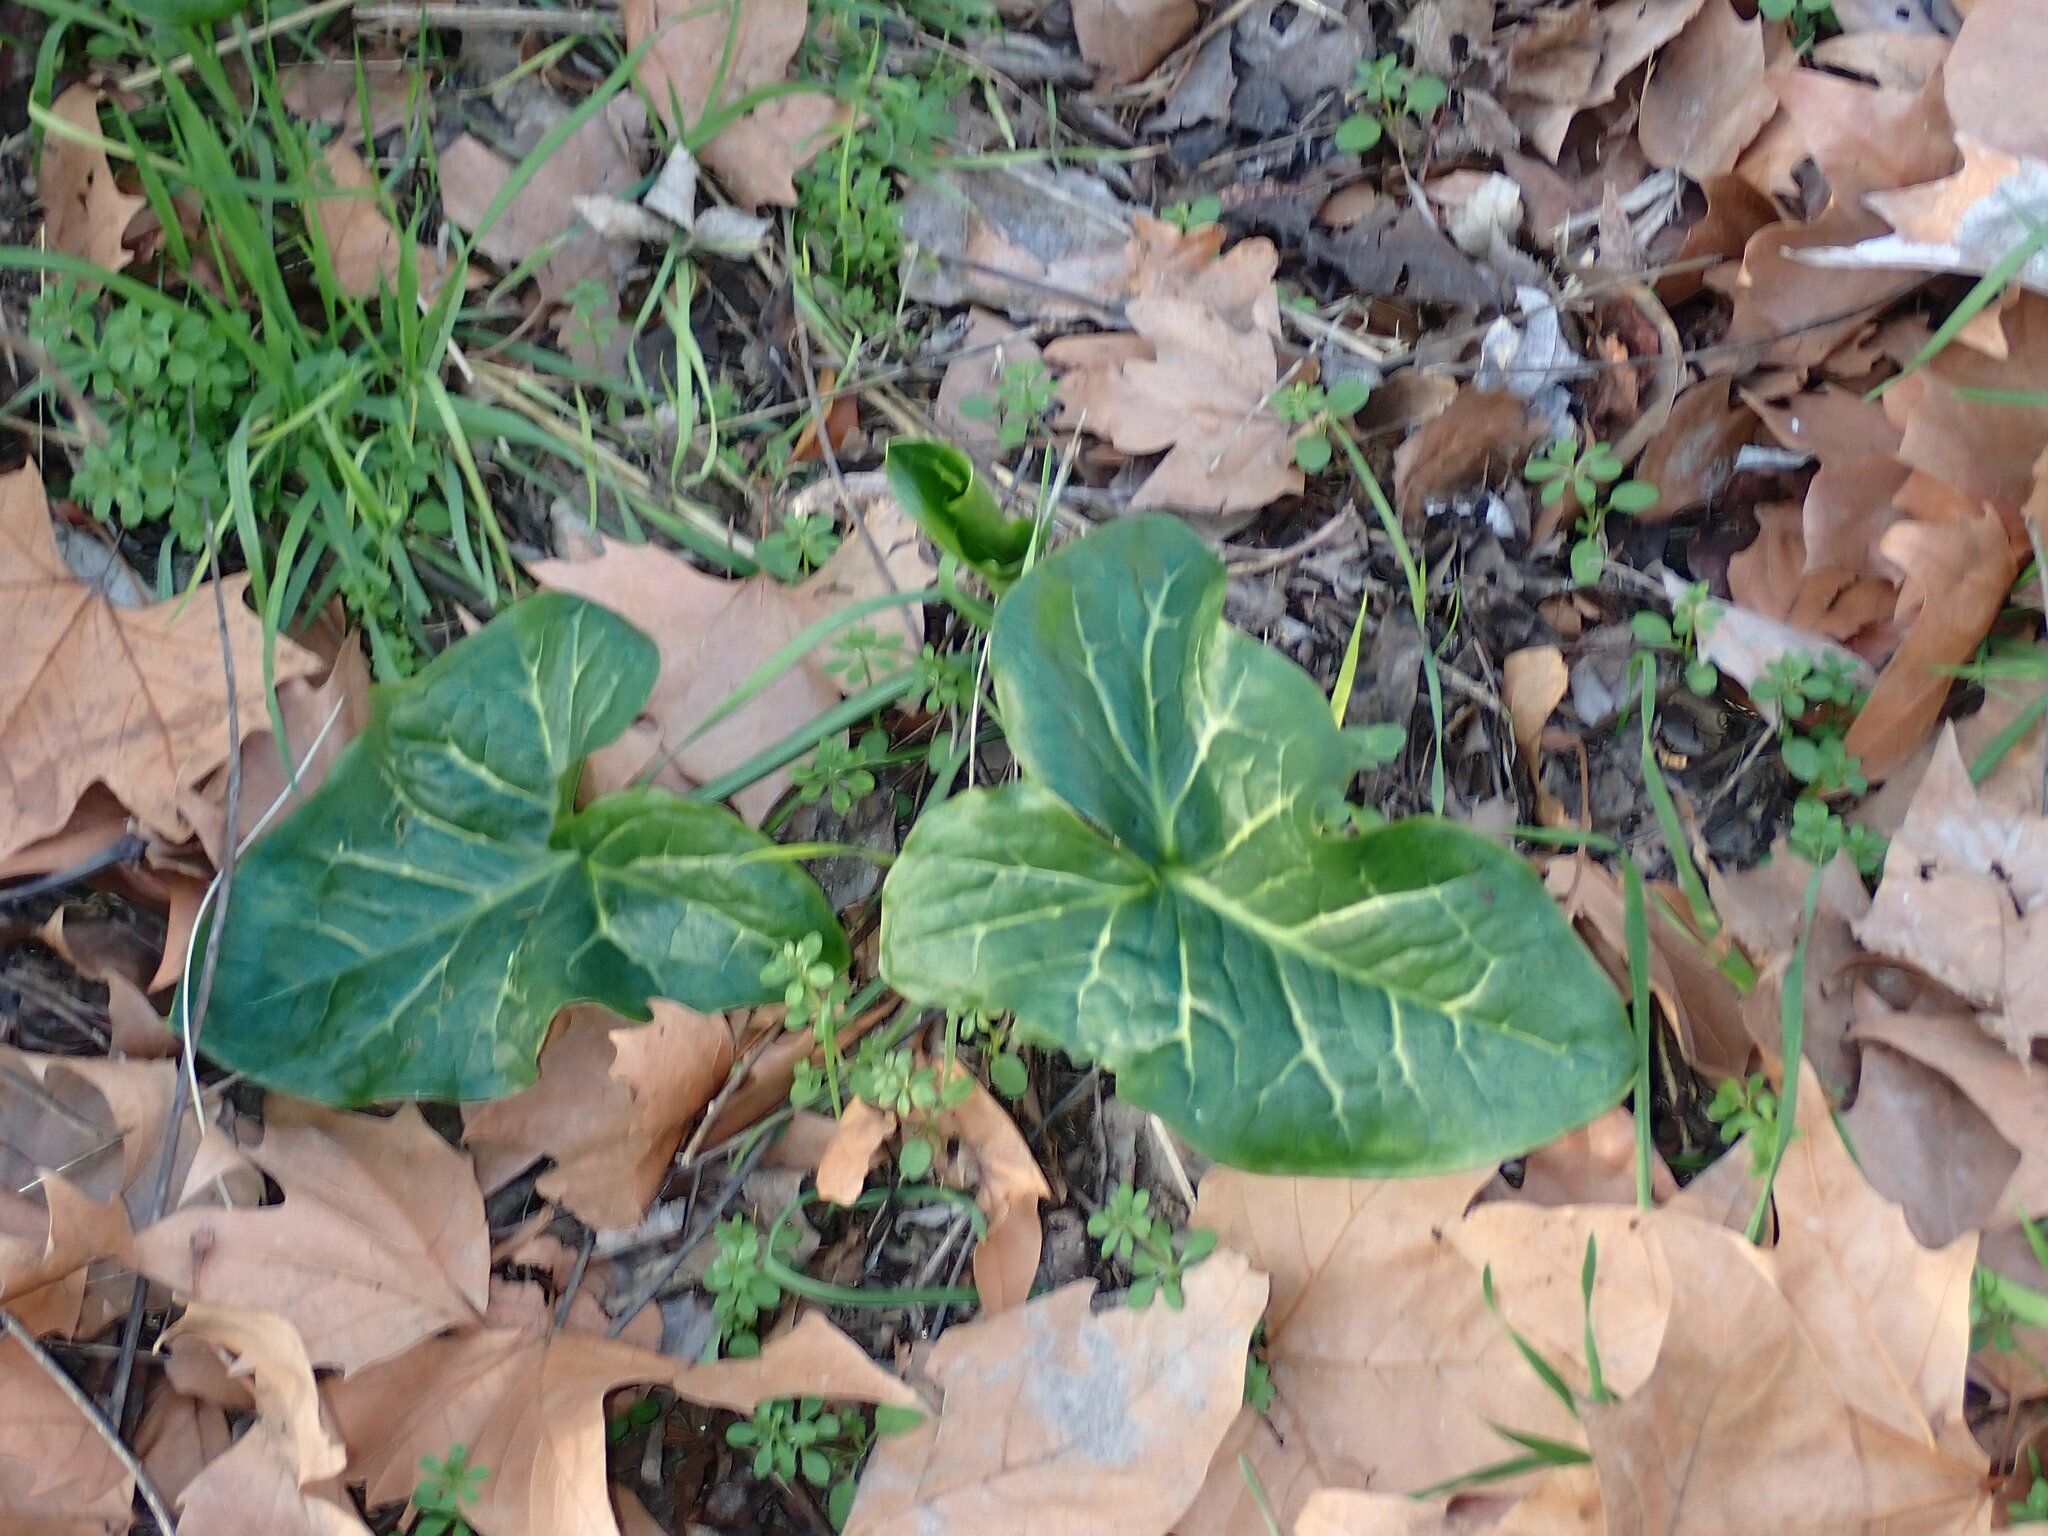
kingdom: Plantae
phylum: Tracheophyta
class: Liliopsida
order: Alismatales
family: Araceae
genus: Arum
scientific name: Arum italicum
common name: Italian lords-and-ladies
